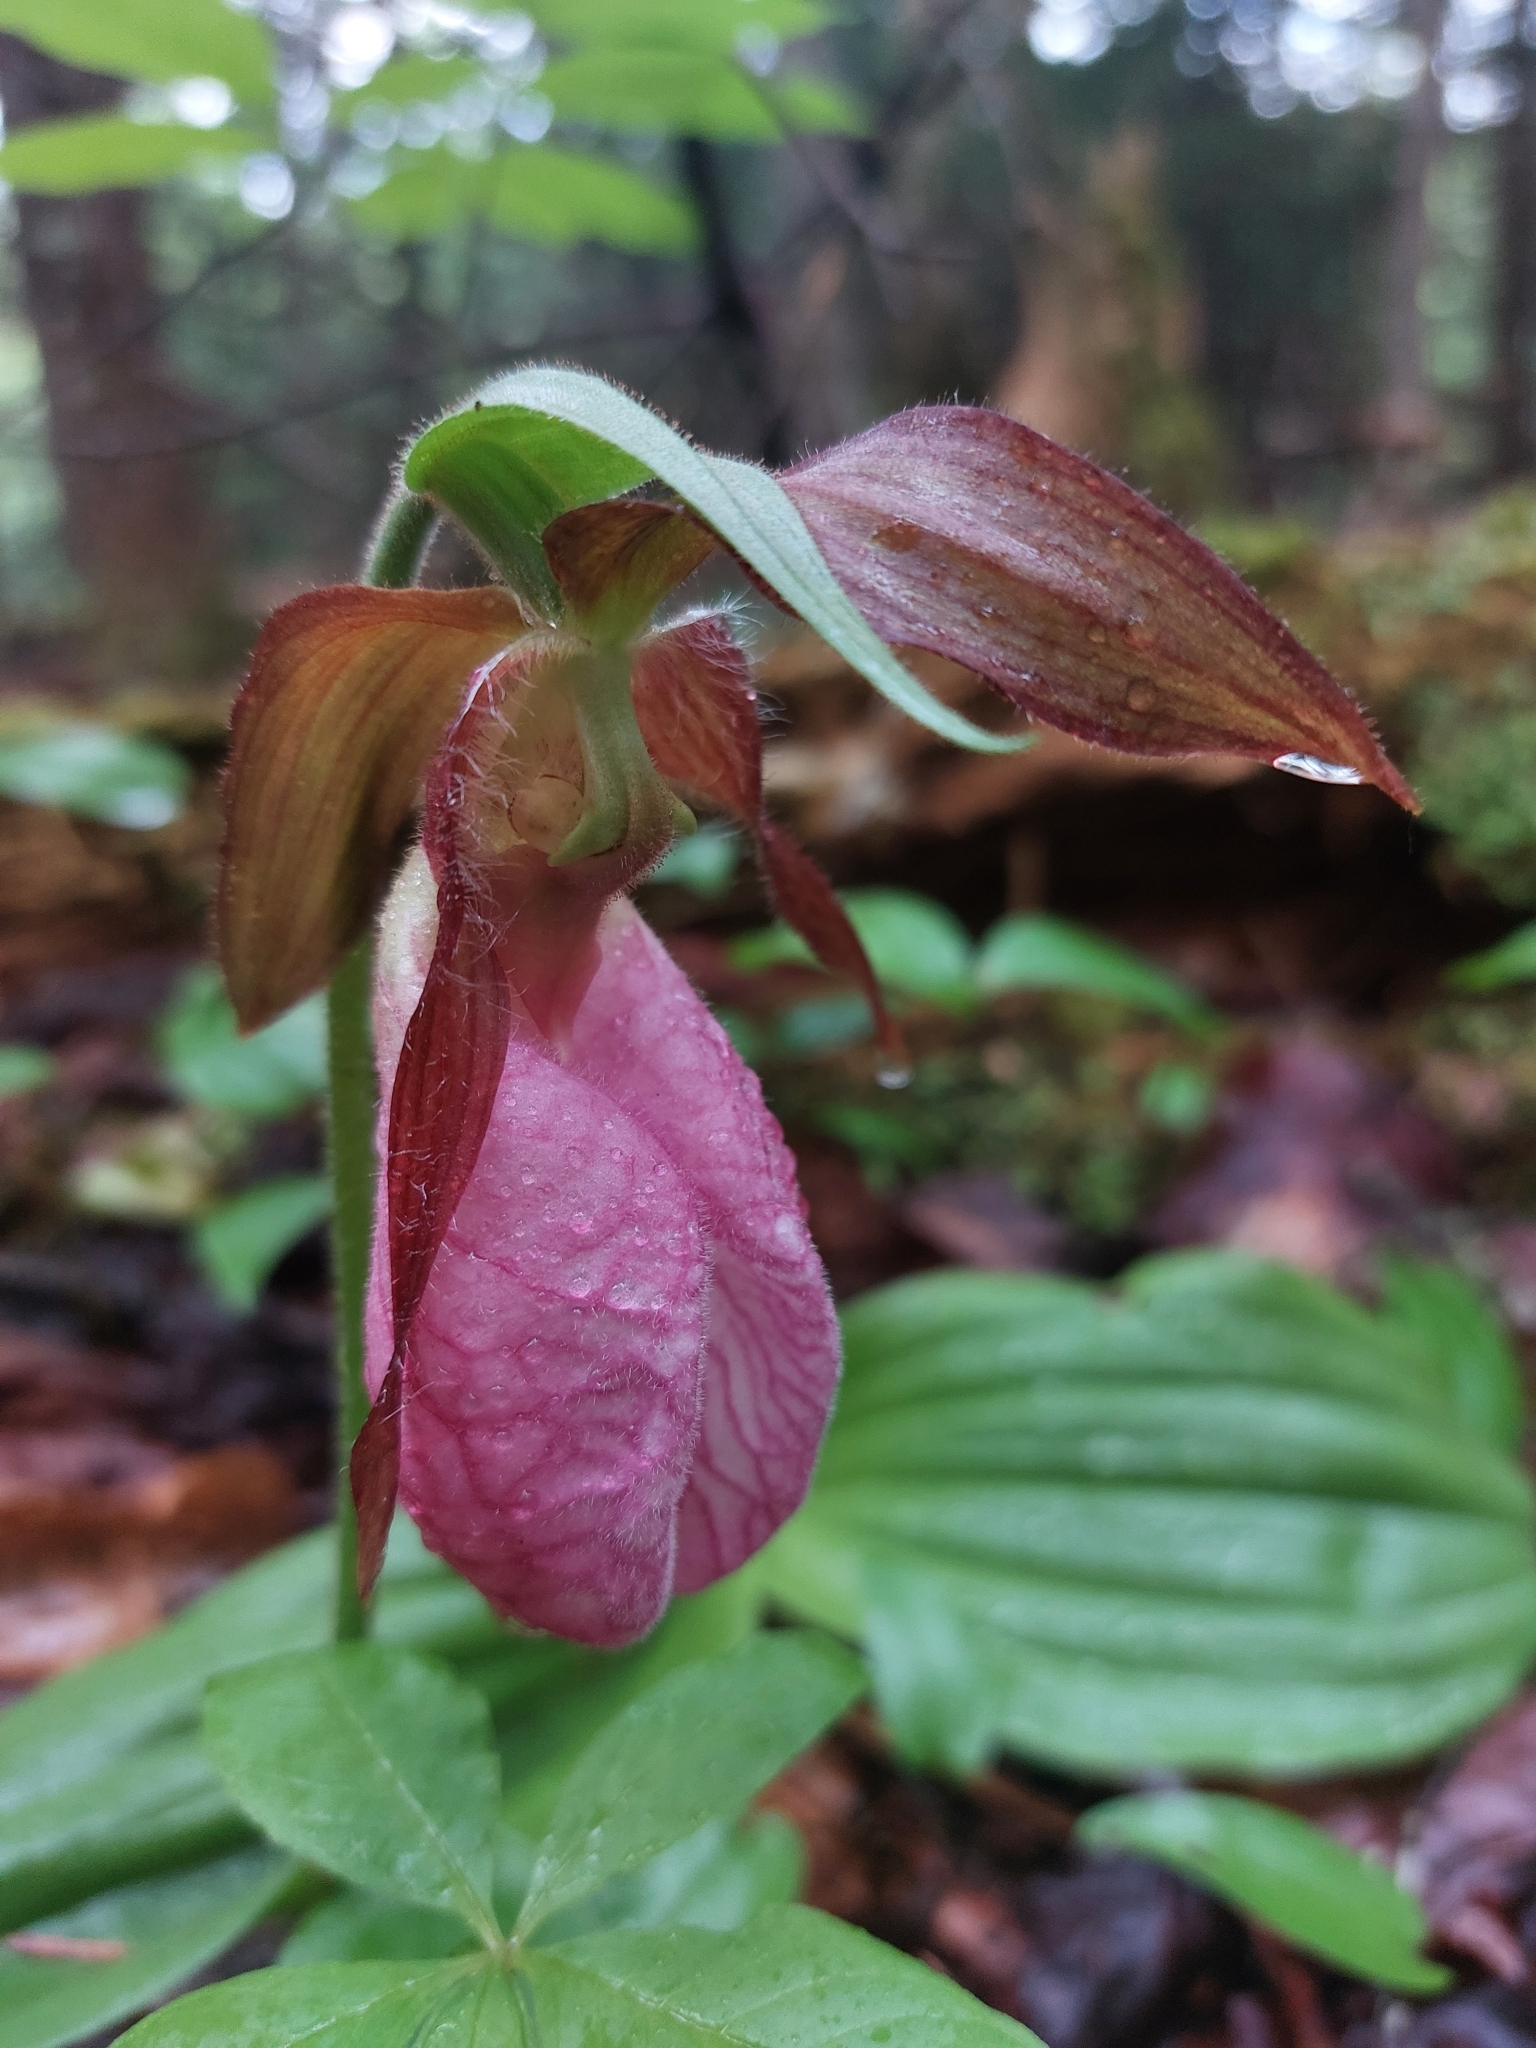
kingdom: Plantae
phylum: Tracheophyta
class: Liliopsida
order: Asparagales
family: Orchidaceae
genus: Cypripedium
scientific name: Cypripedium acaule
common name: Pink lady's-slipper
